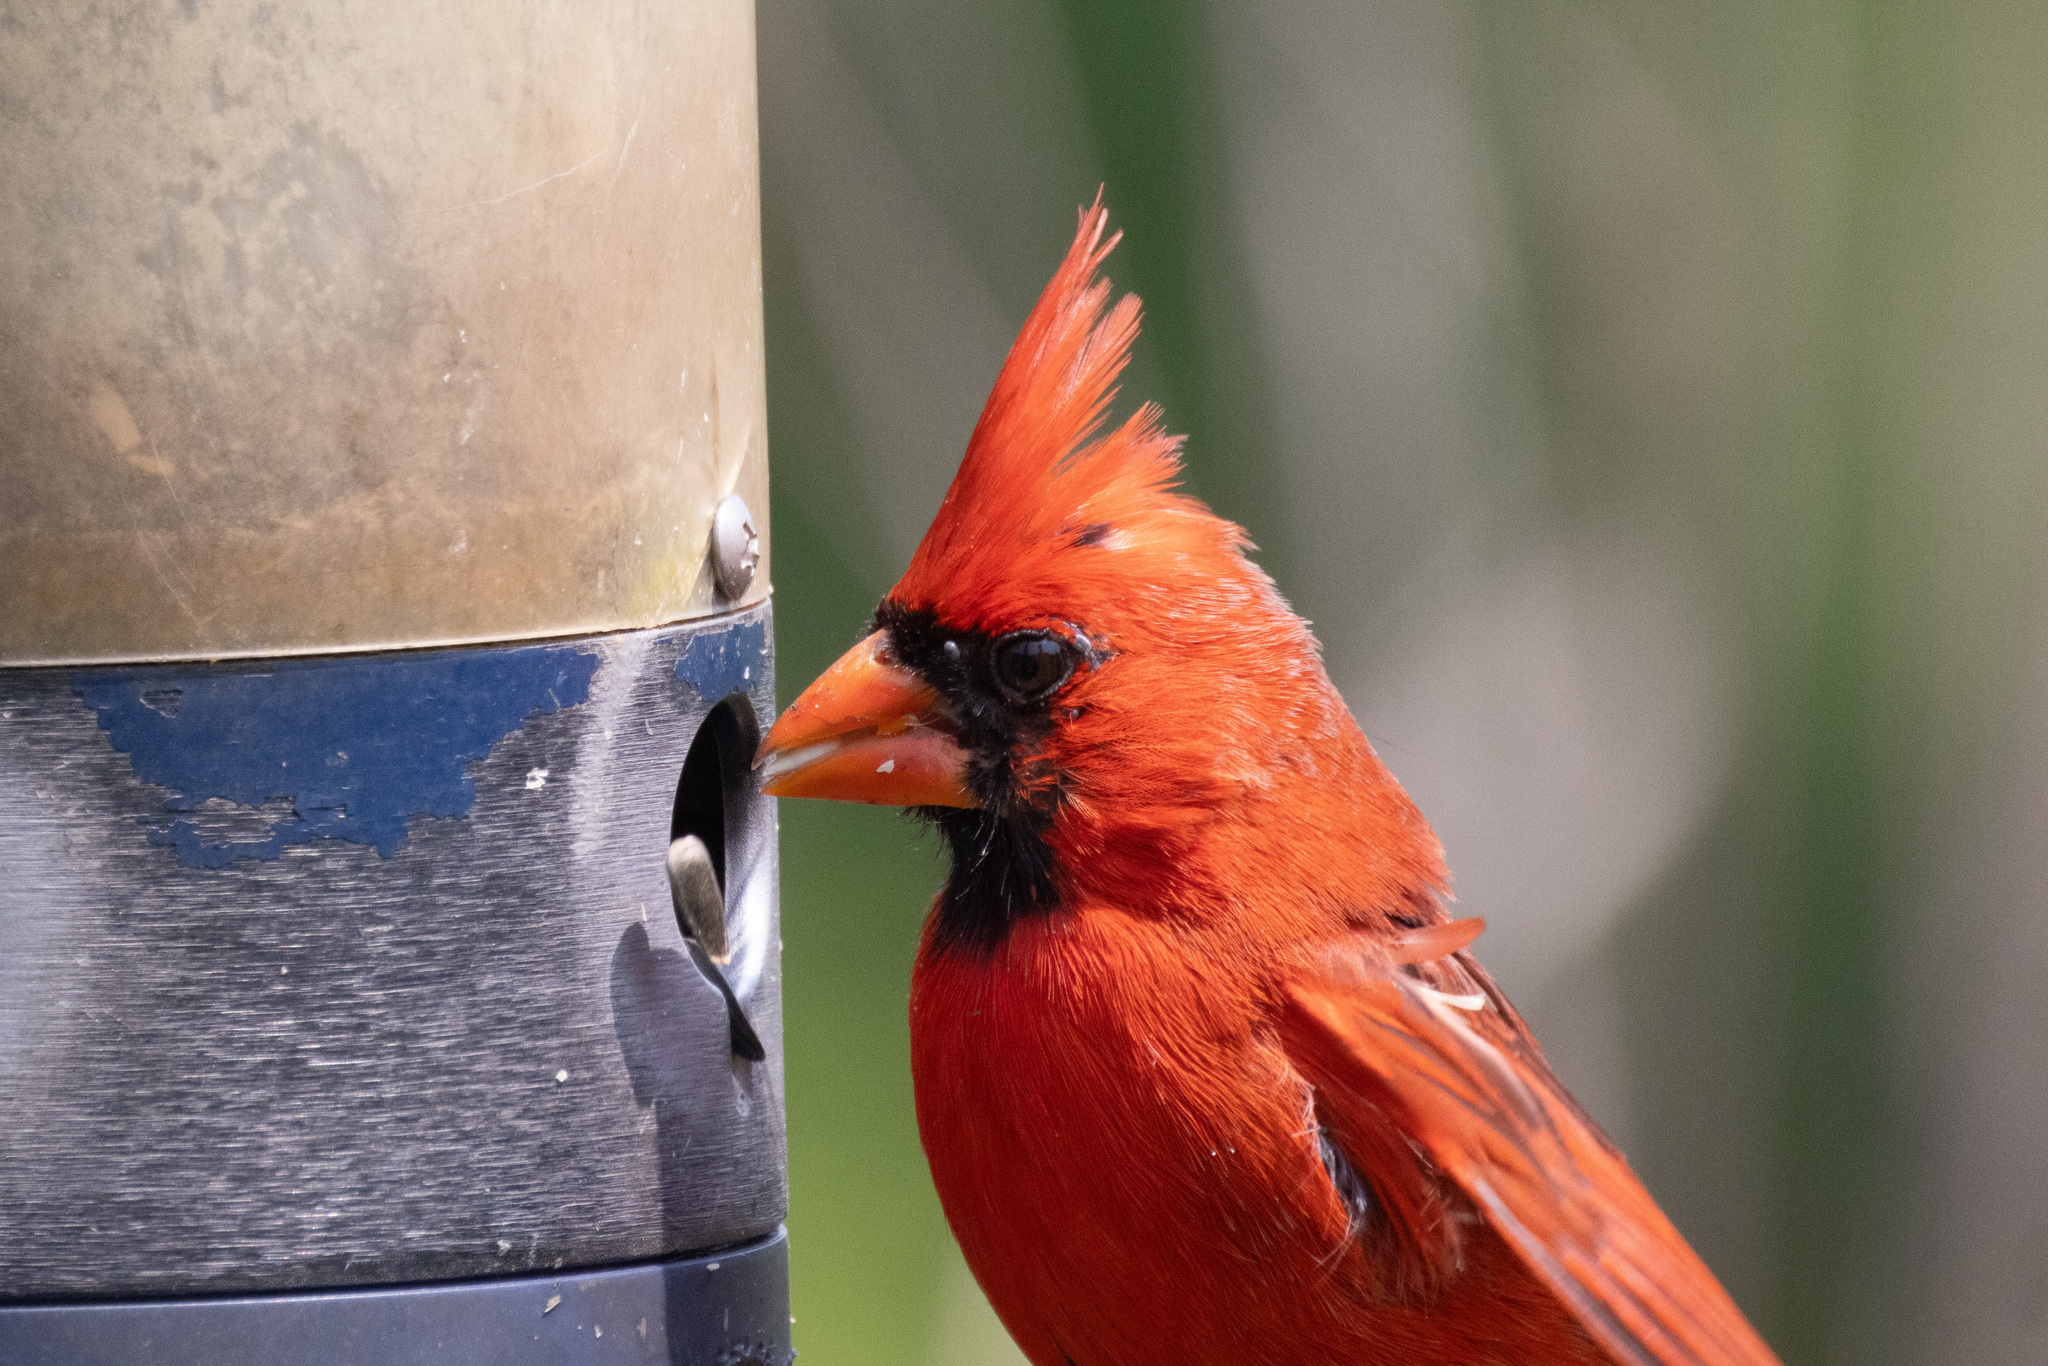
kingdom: Animalia
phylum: Chordata
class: Aves
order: Passeriformes
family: Cardinalidae
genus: Cardinalis
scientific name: Cardinalis cardinalis
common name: Northern cardinal
